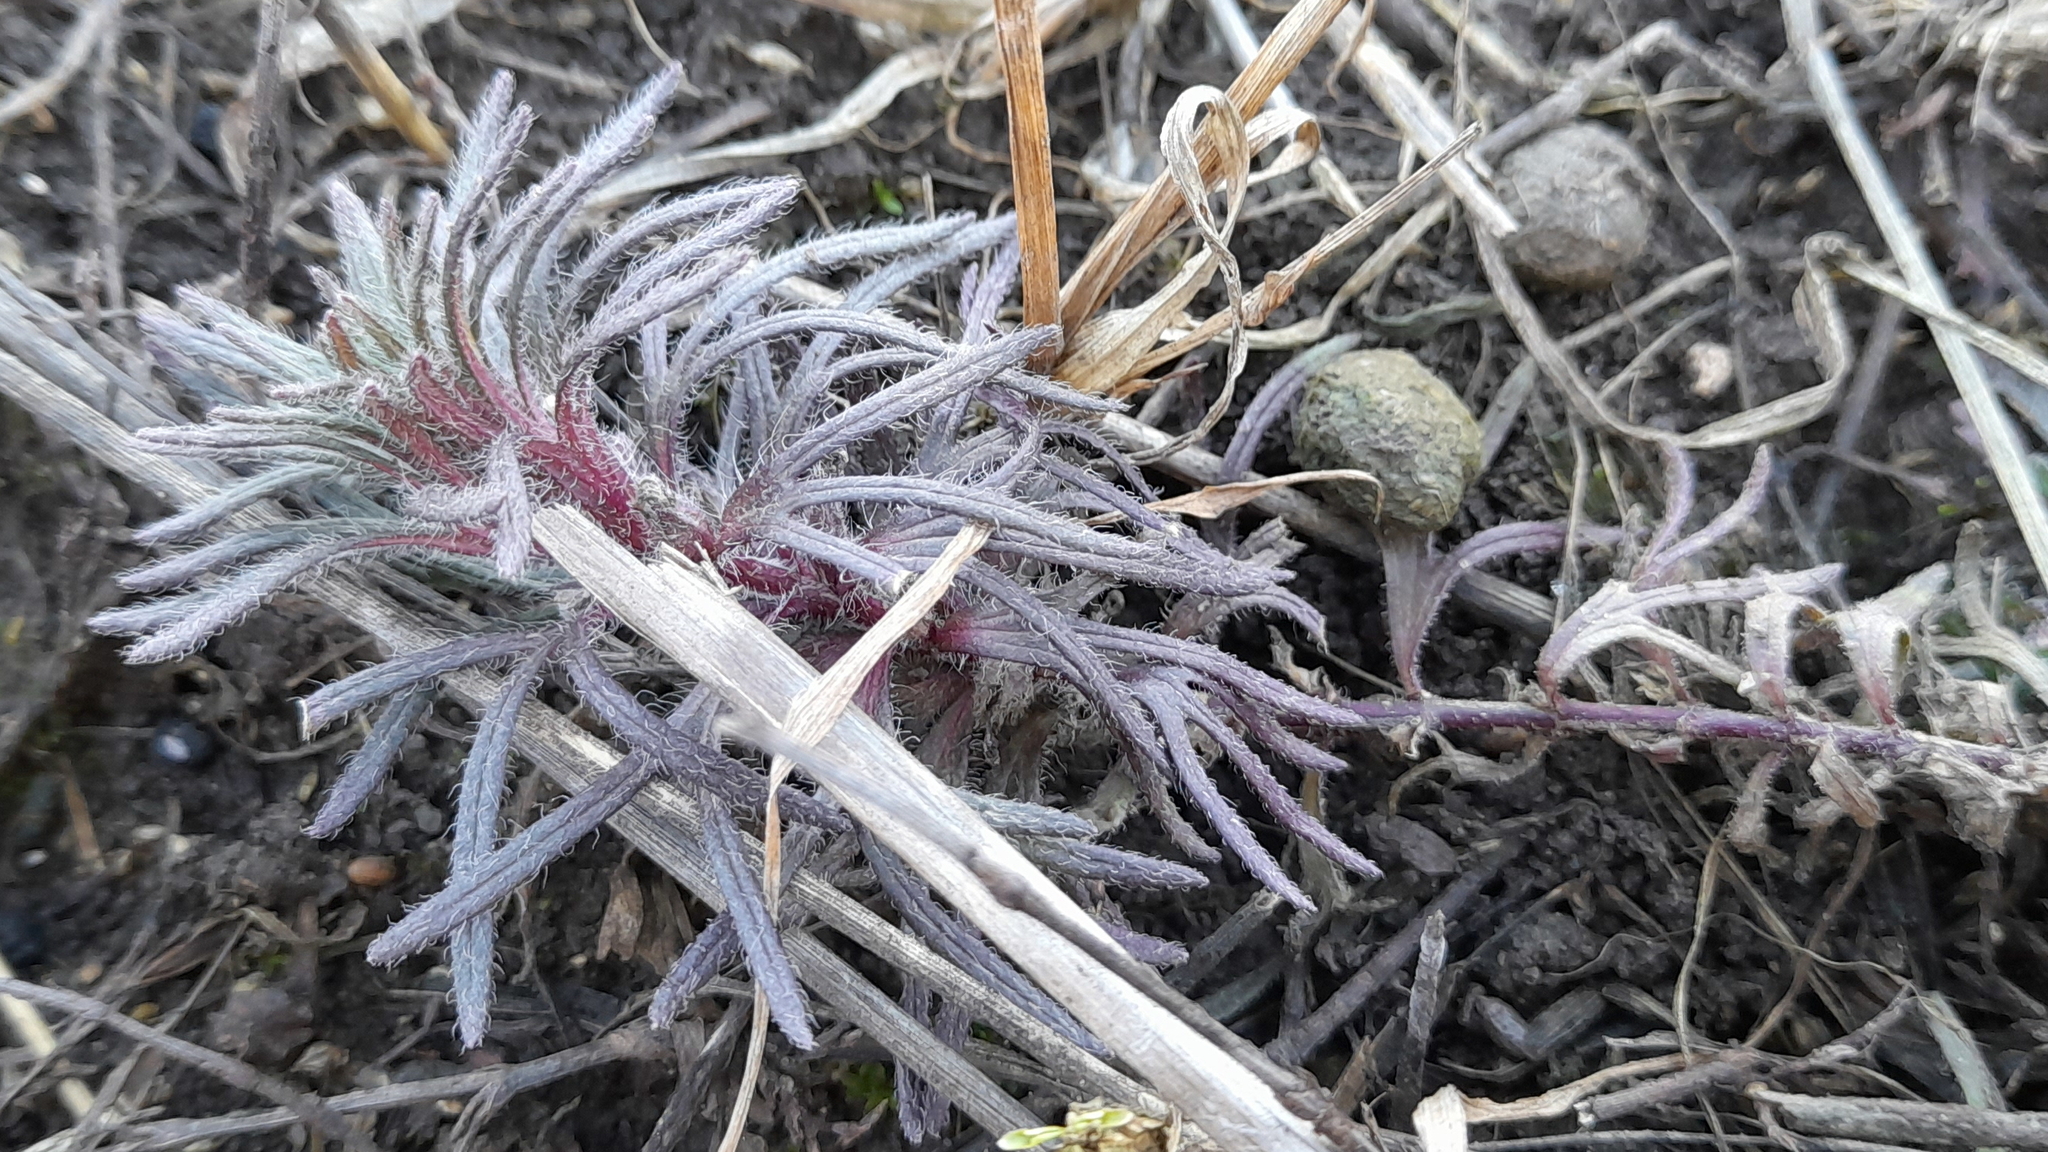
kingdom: Plantae
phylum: Tracheophyta
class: Magnoliopsida
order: Lamiales
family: Lamiaceae
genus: Ajuga
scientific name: Ajuga chamaepitys
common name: Ground-pine
